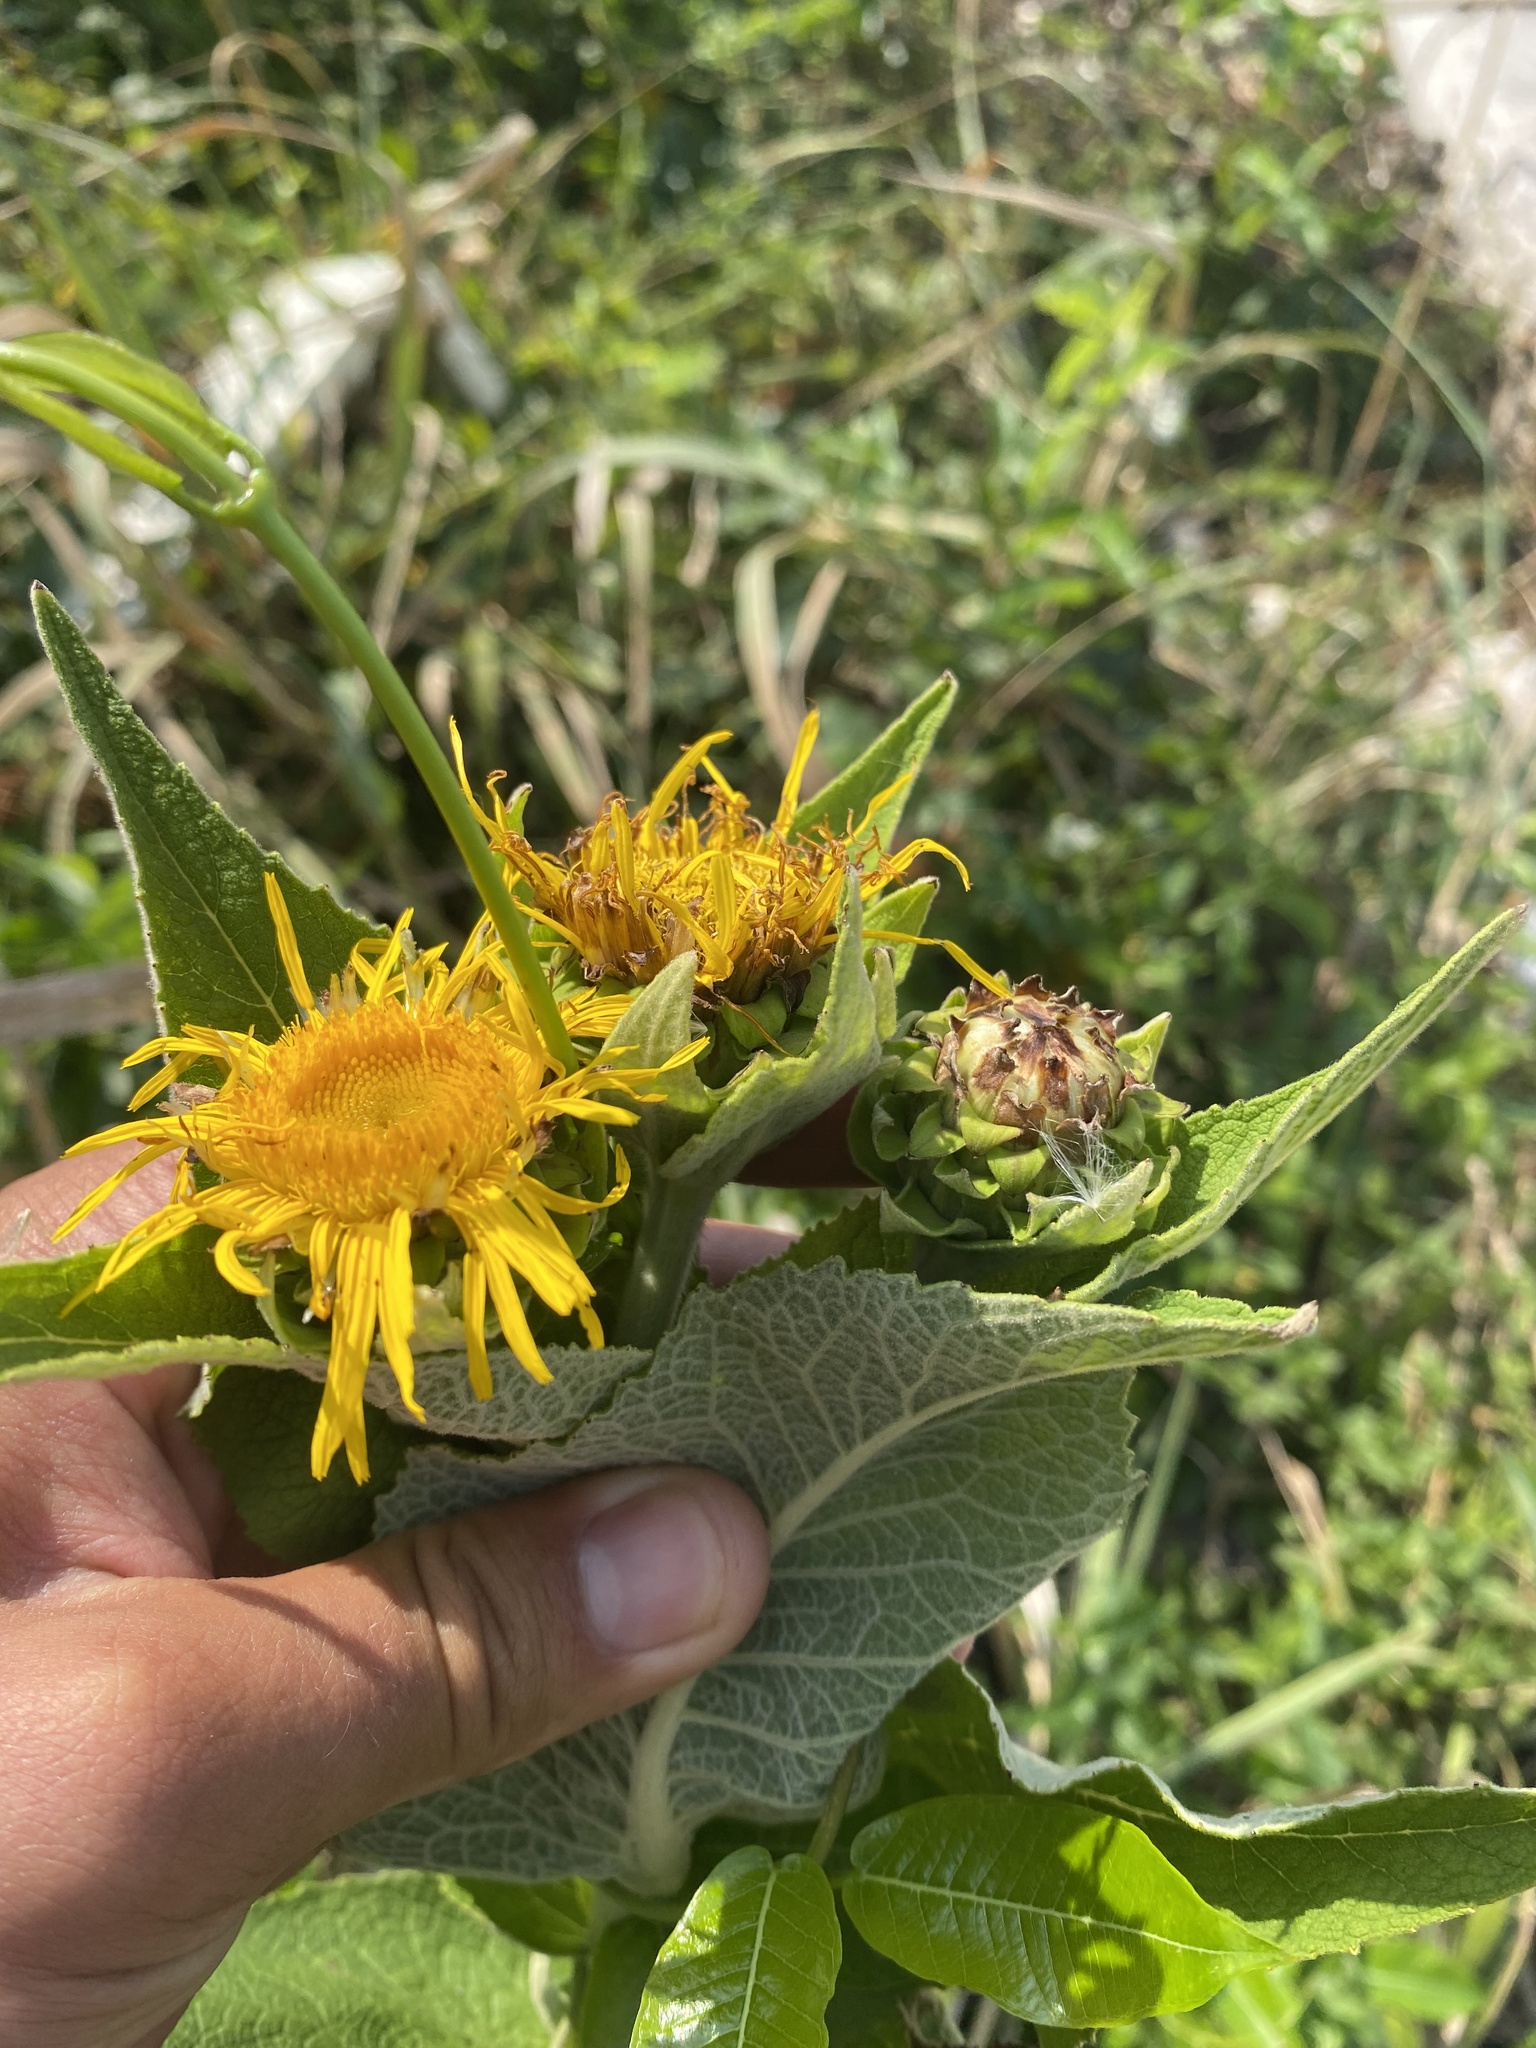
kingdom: Plantae
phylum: Tracheophyta
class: Magnoliopsida
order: Asterales
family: Asteraceae
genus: Inula
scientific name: Inula helenium
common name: Elecampane
